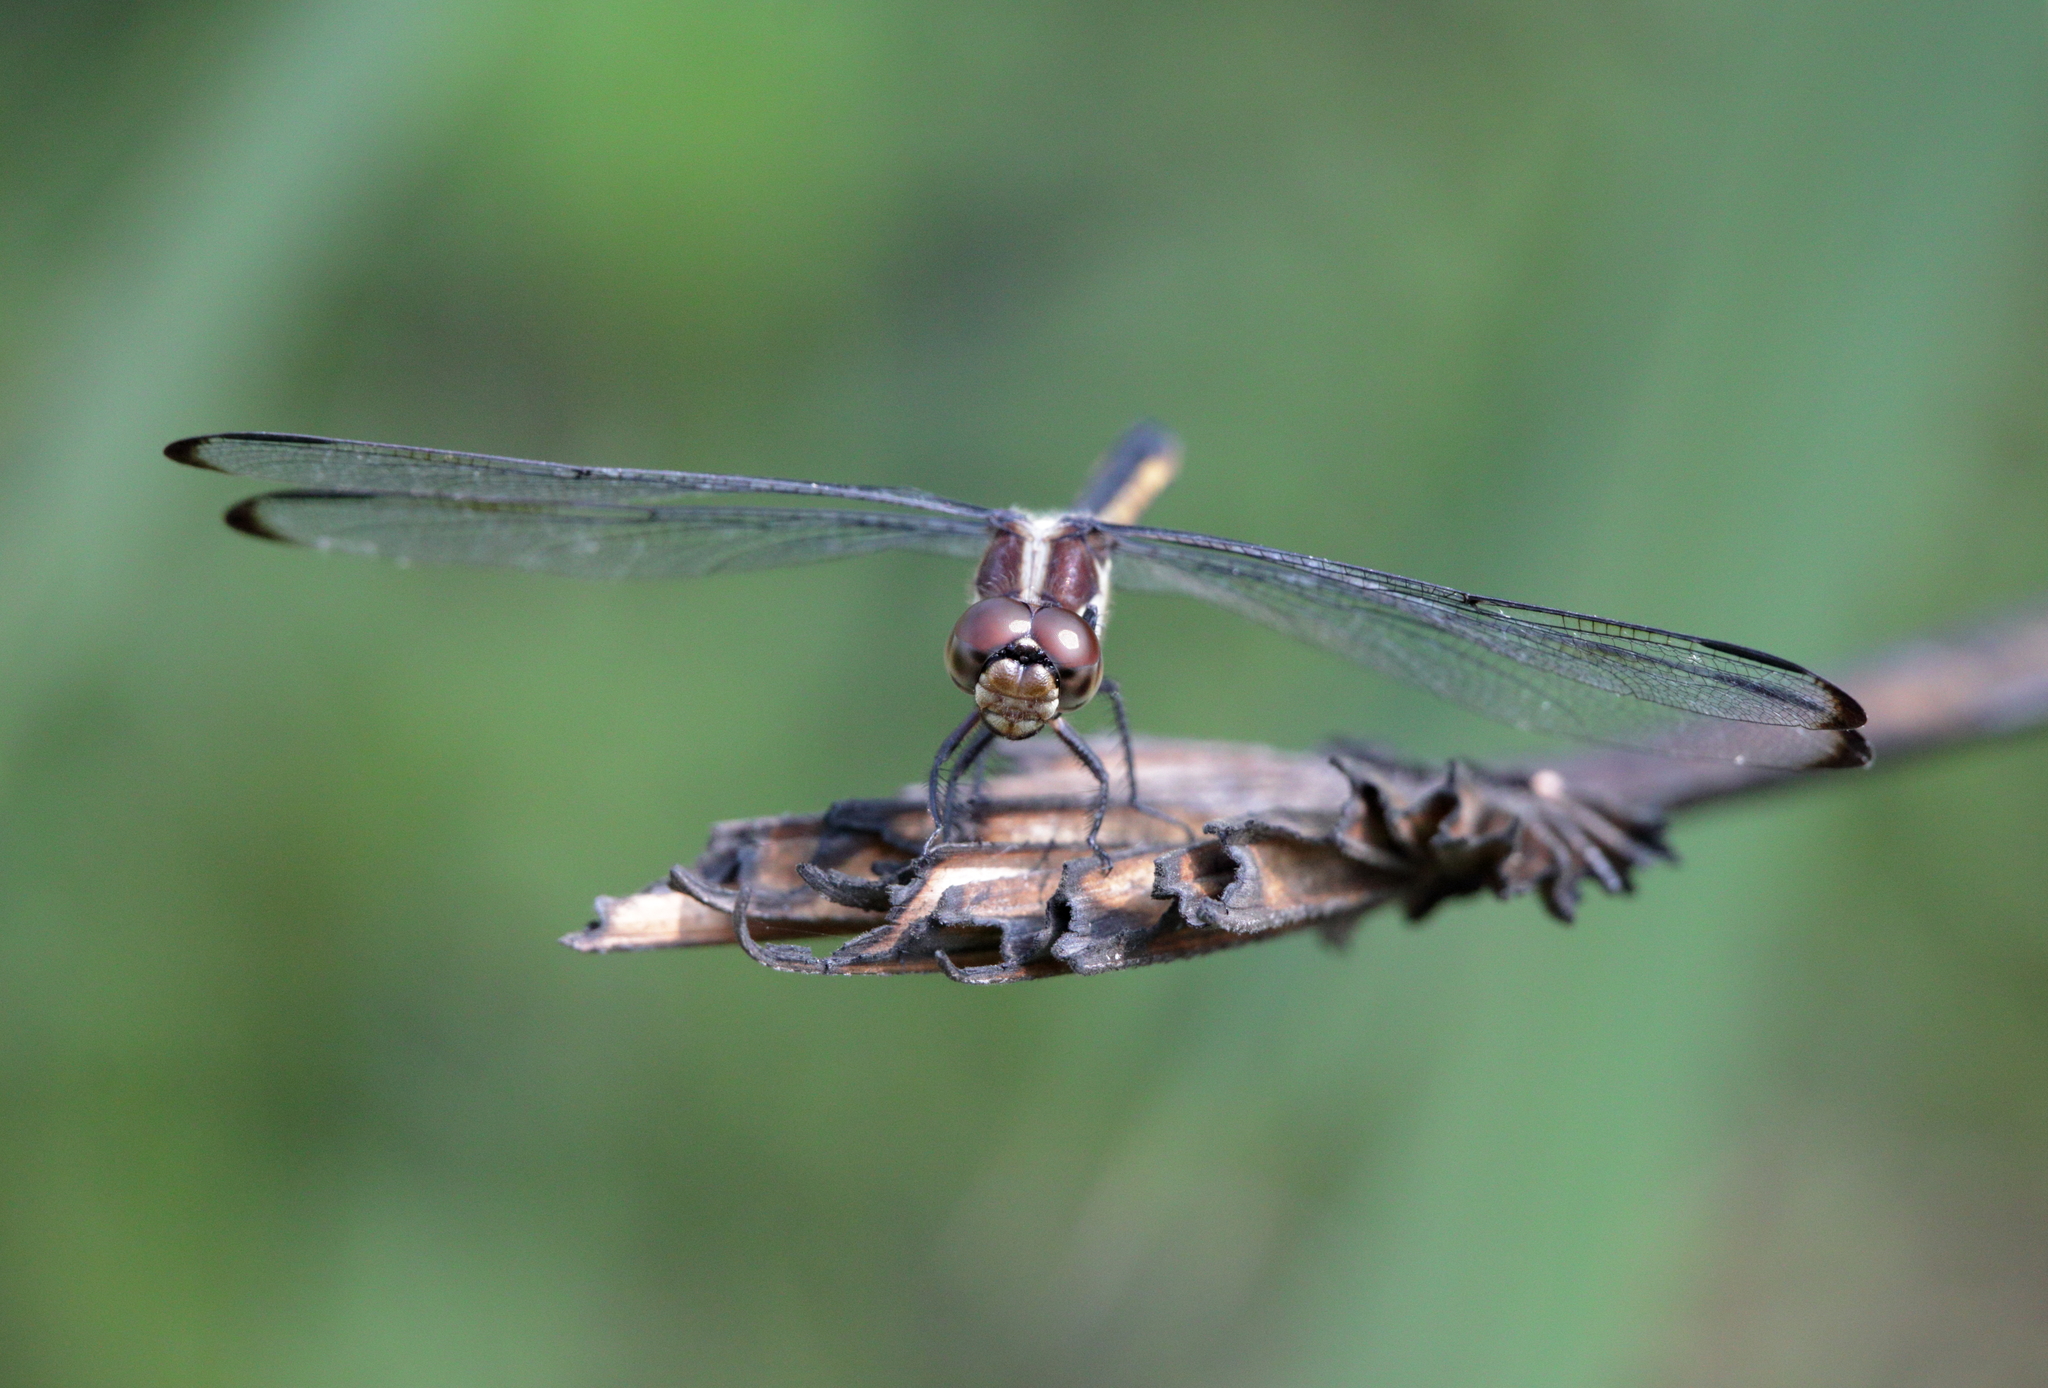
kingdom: Animalia
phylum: Arthropoda
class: Insecta
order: Odonata
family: Libellulidae
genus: Libellula
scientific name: Libellula incesta
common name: Slaty skimmer
